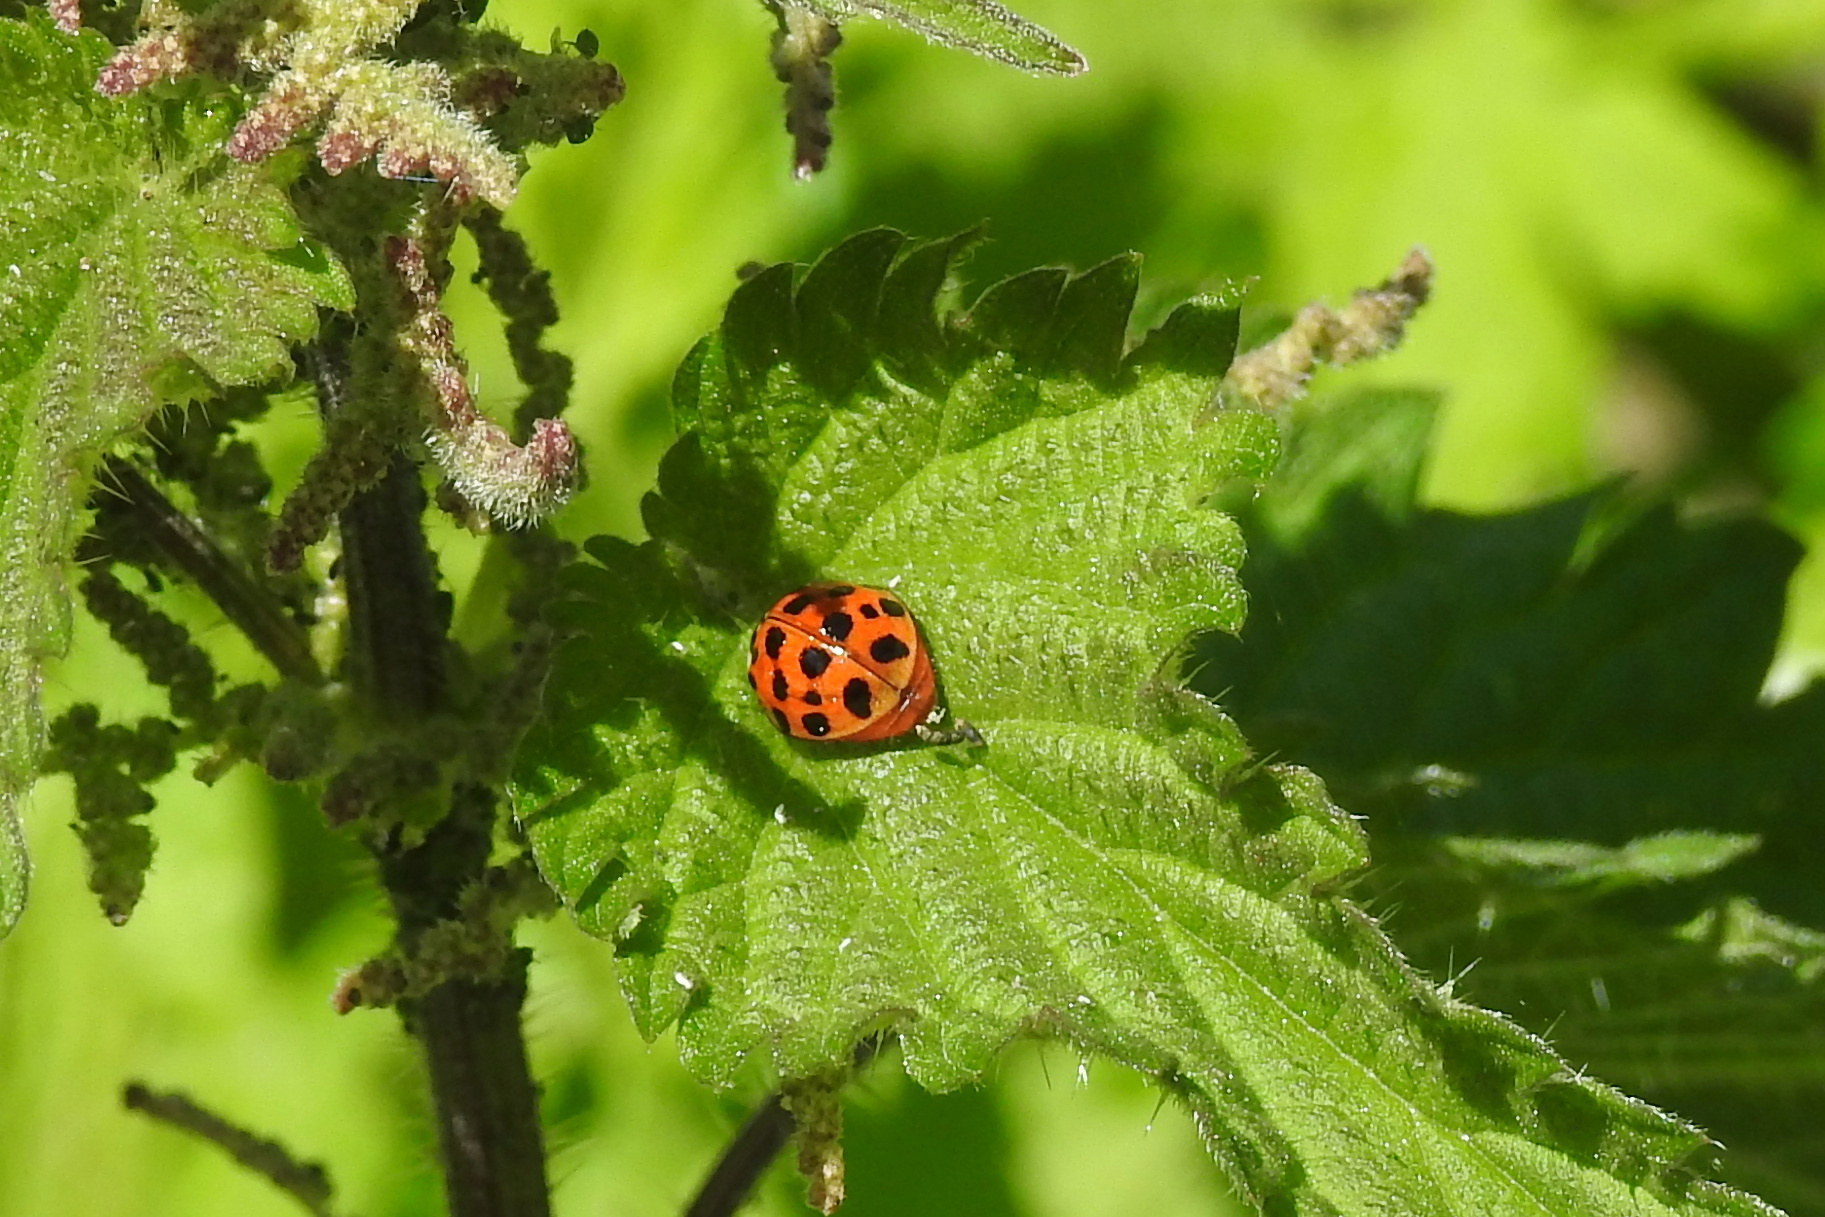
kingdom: Animalia
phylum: Arthropoda
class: Insecta
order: Coleoptera
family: Coccinellidae
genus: Harmonia
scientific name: Harmonia axyridis
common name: Harlequin ladybird
